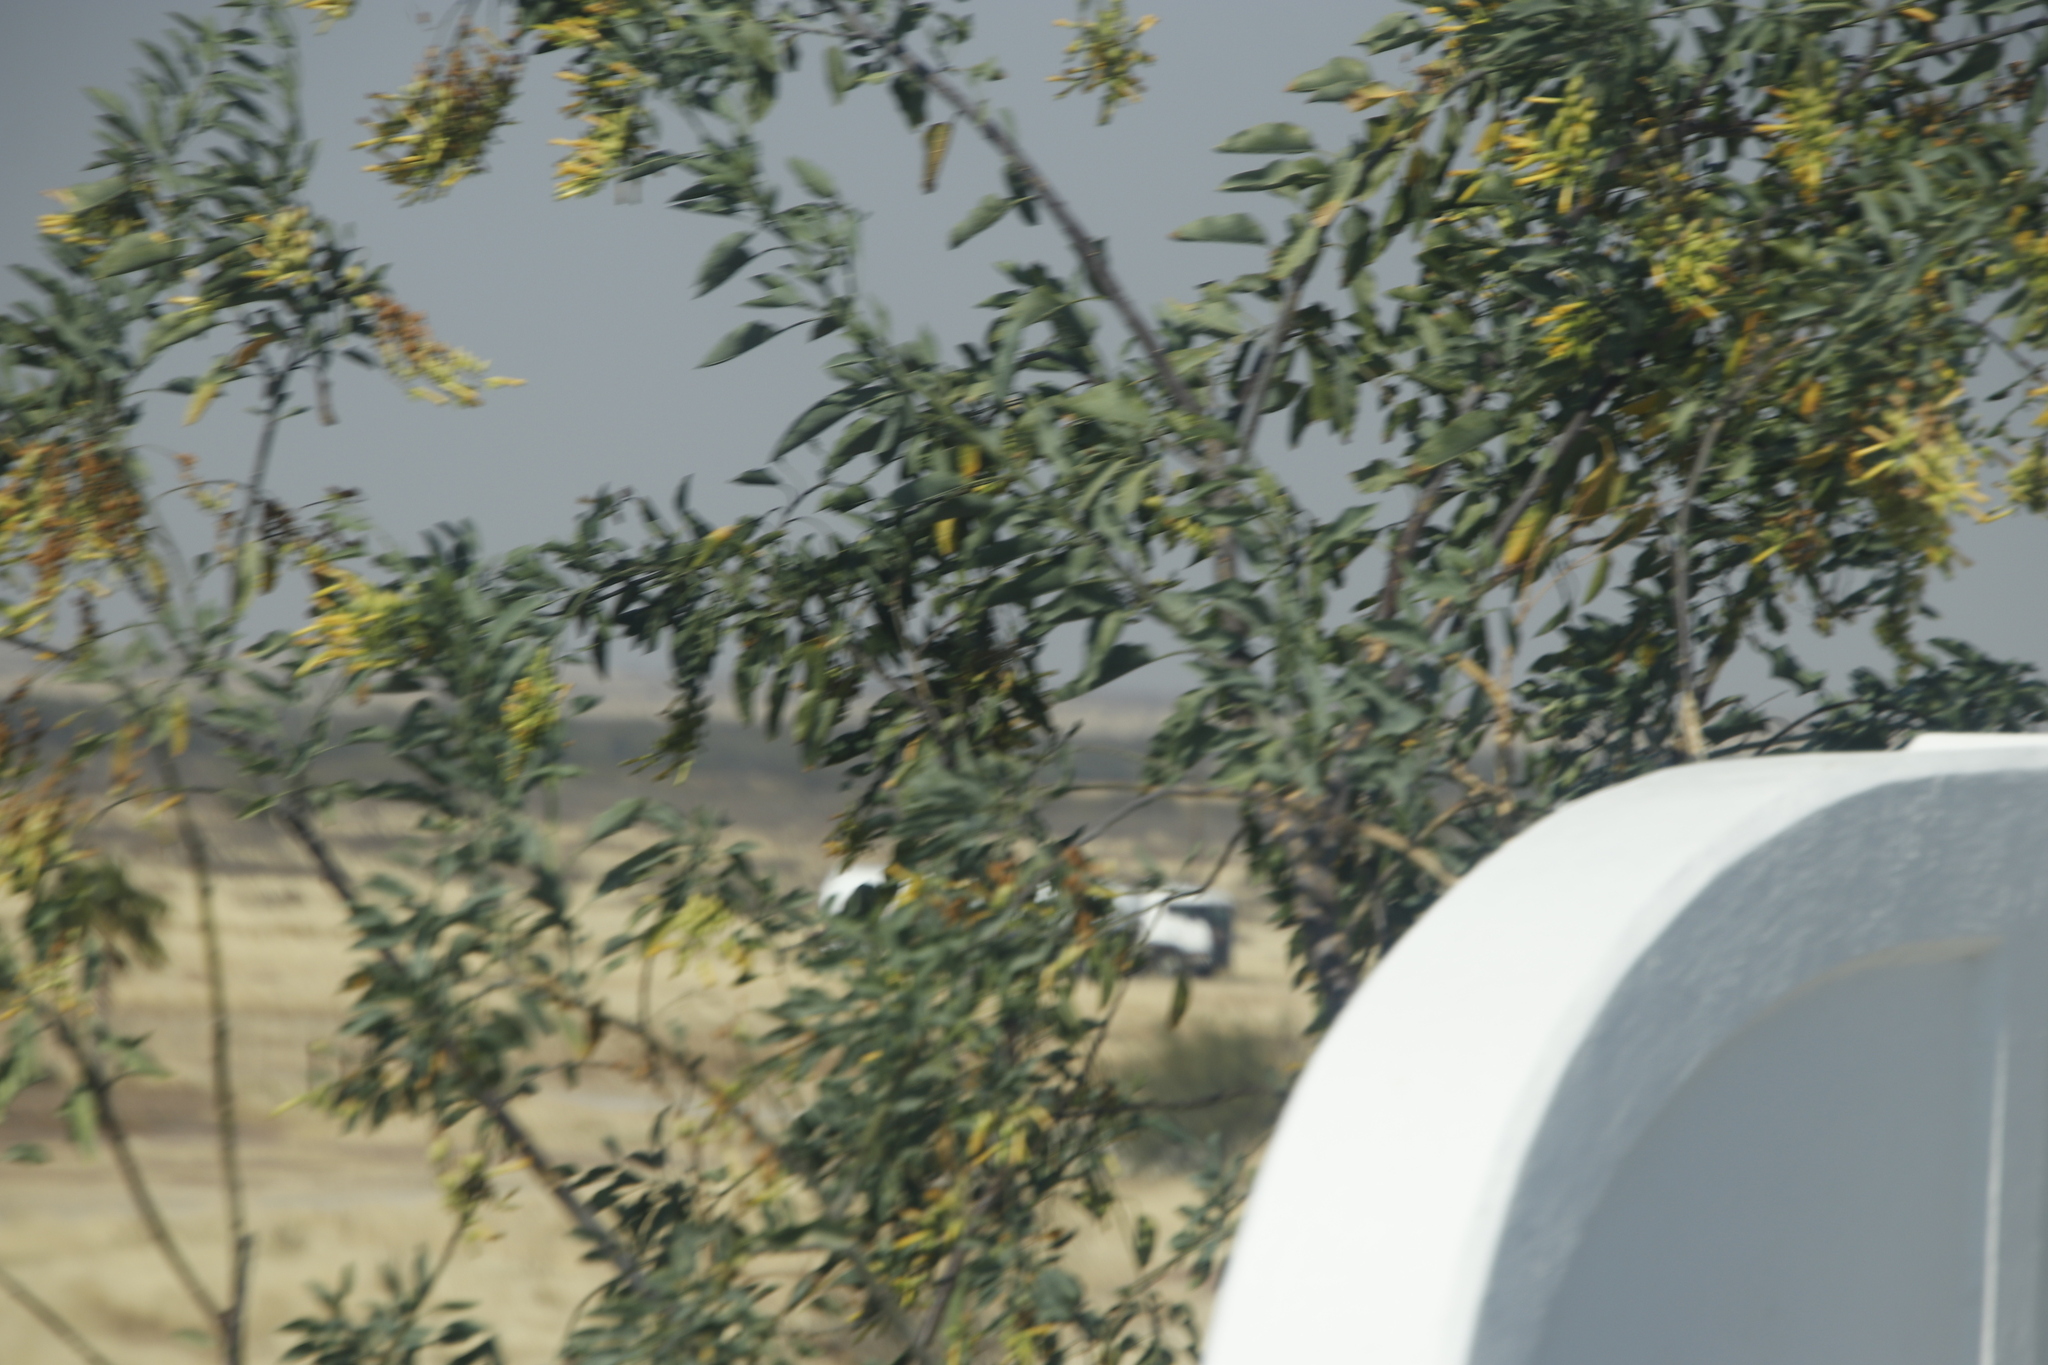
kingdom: Plantae
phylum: Tracheophyta
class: Magnoliopsida
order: Solanales
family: Solanaceae
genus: Nicotiana
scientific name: Nicotiana glauca
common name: Tree tobacco
